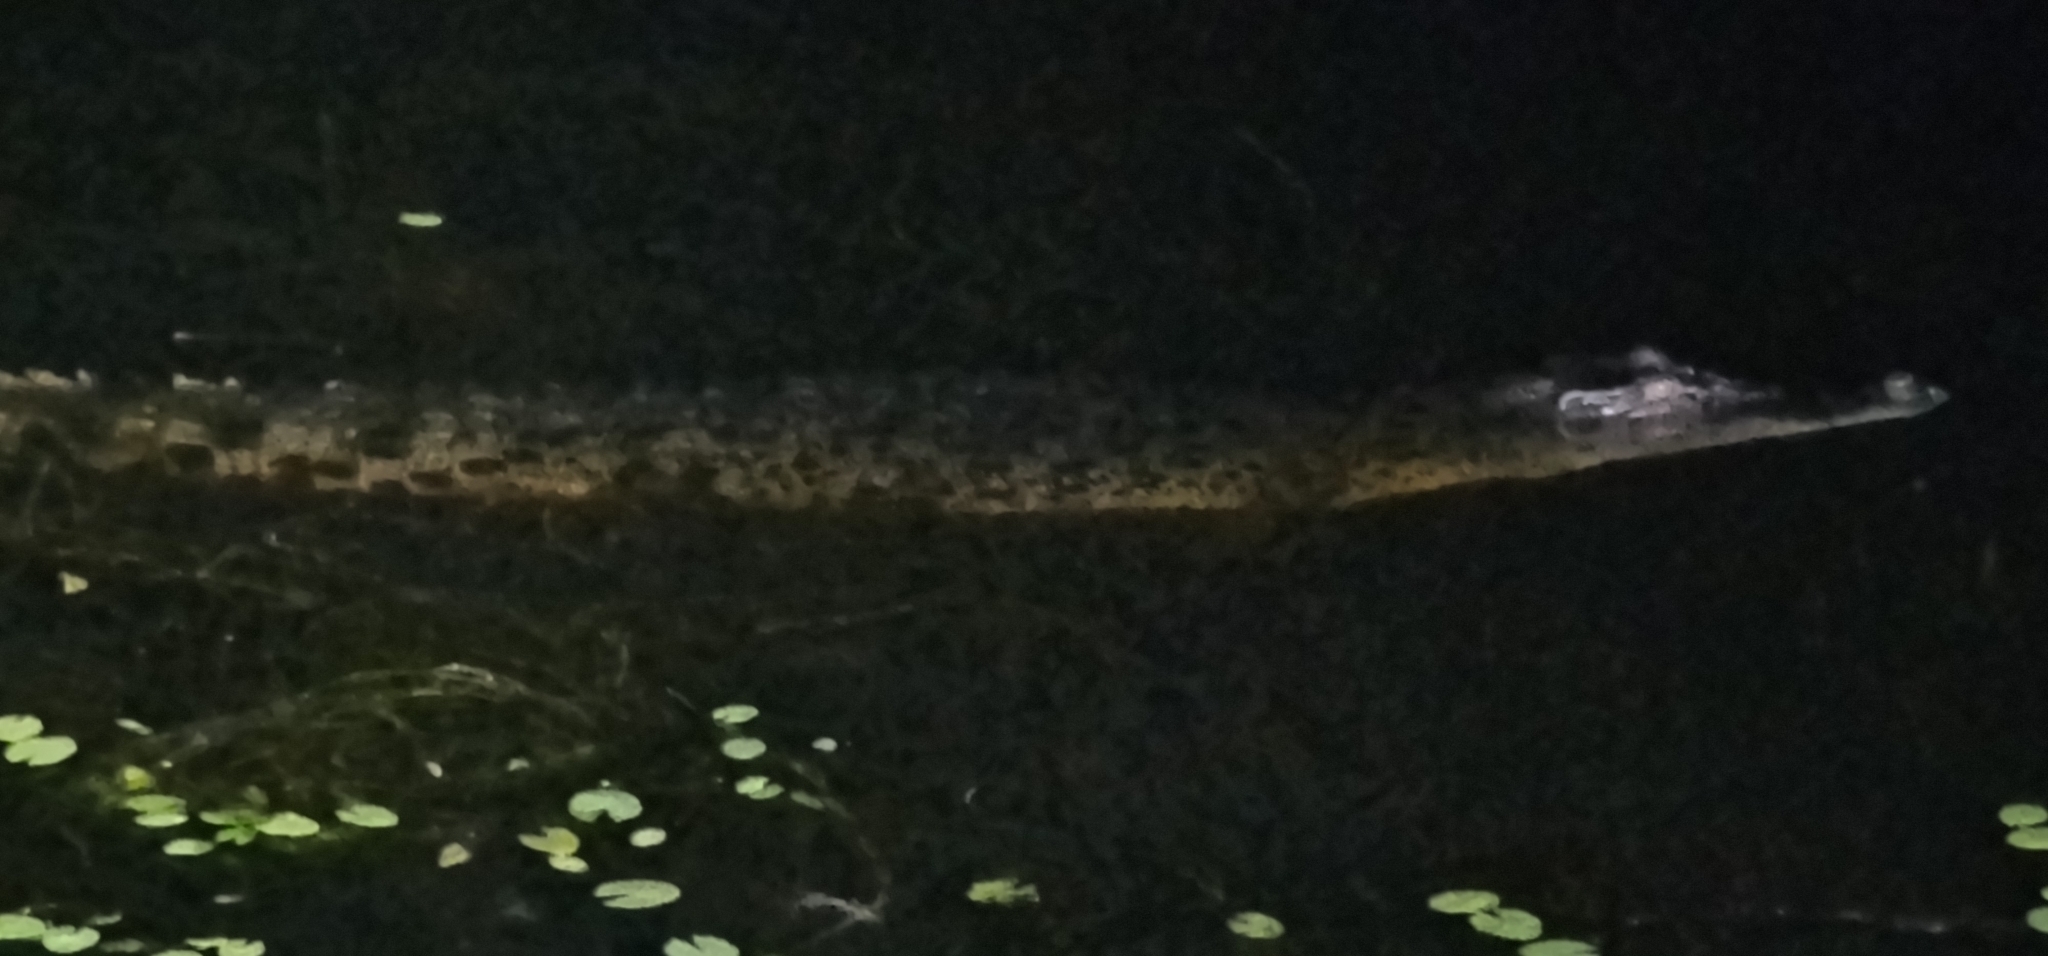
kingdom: Animalia
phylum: Chordata
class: Crocodylia
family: Crocodylidae
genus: Crocodylus
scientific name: Crocodylus porosus
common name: Saltwater crocodile
